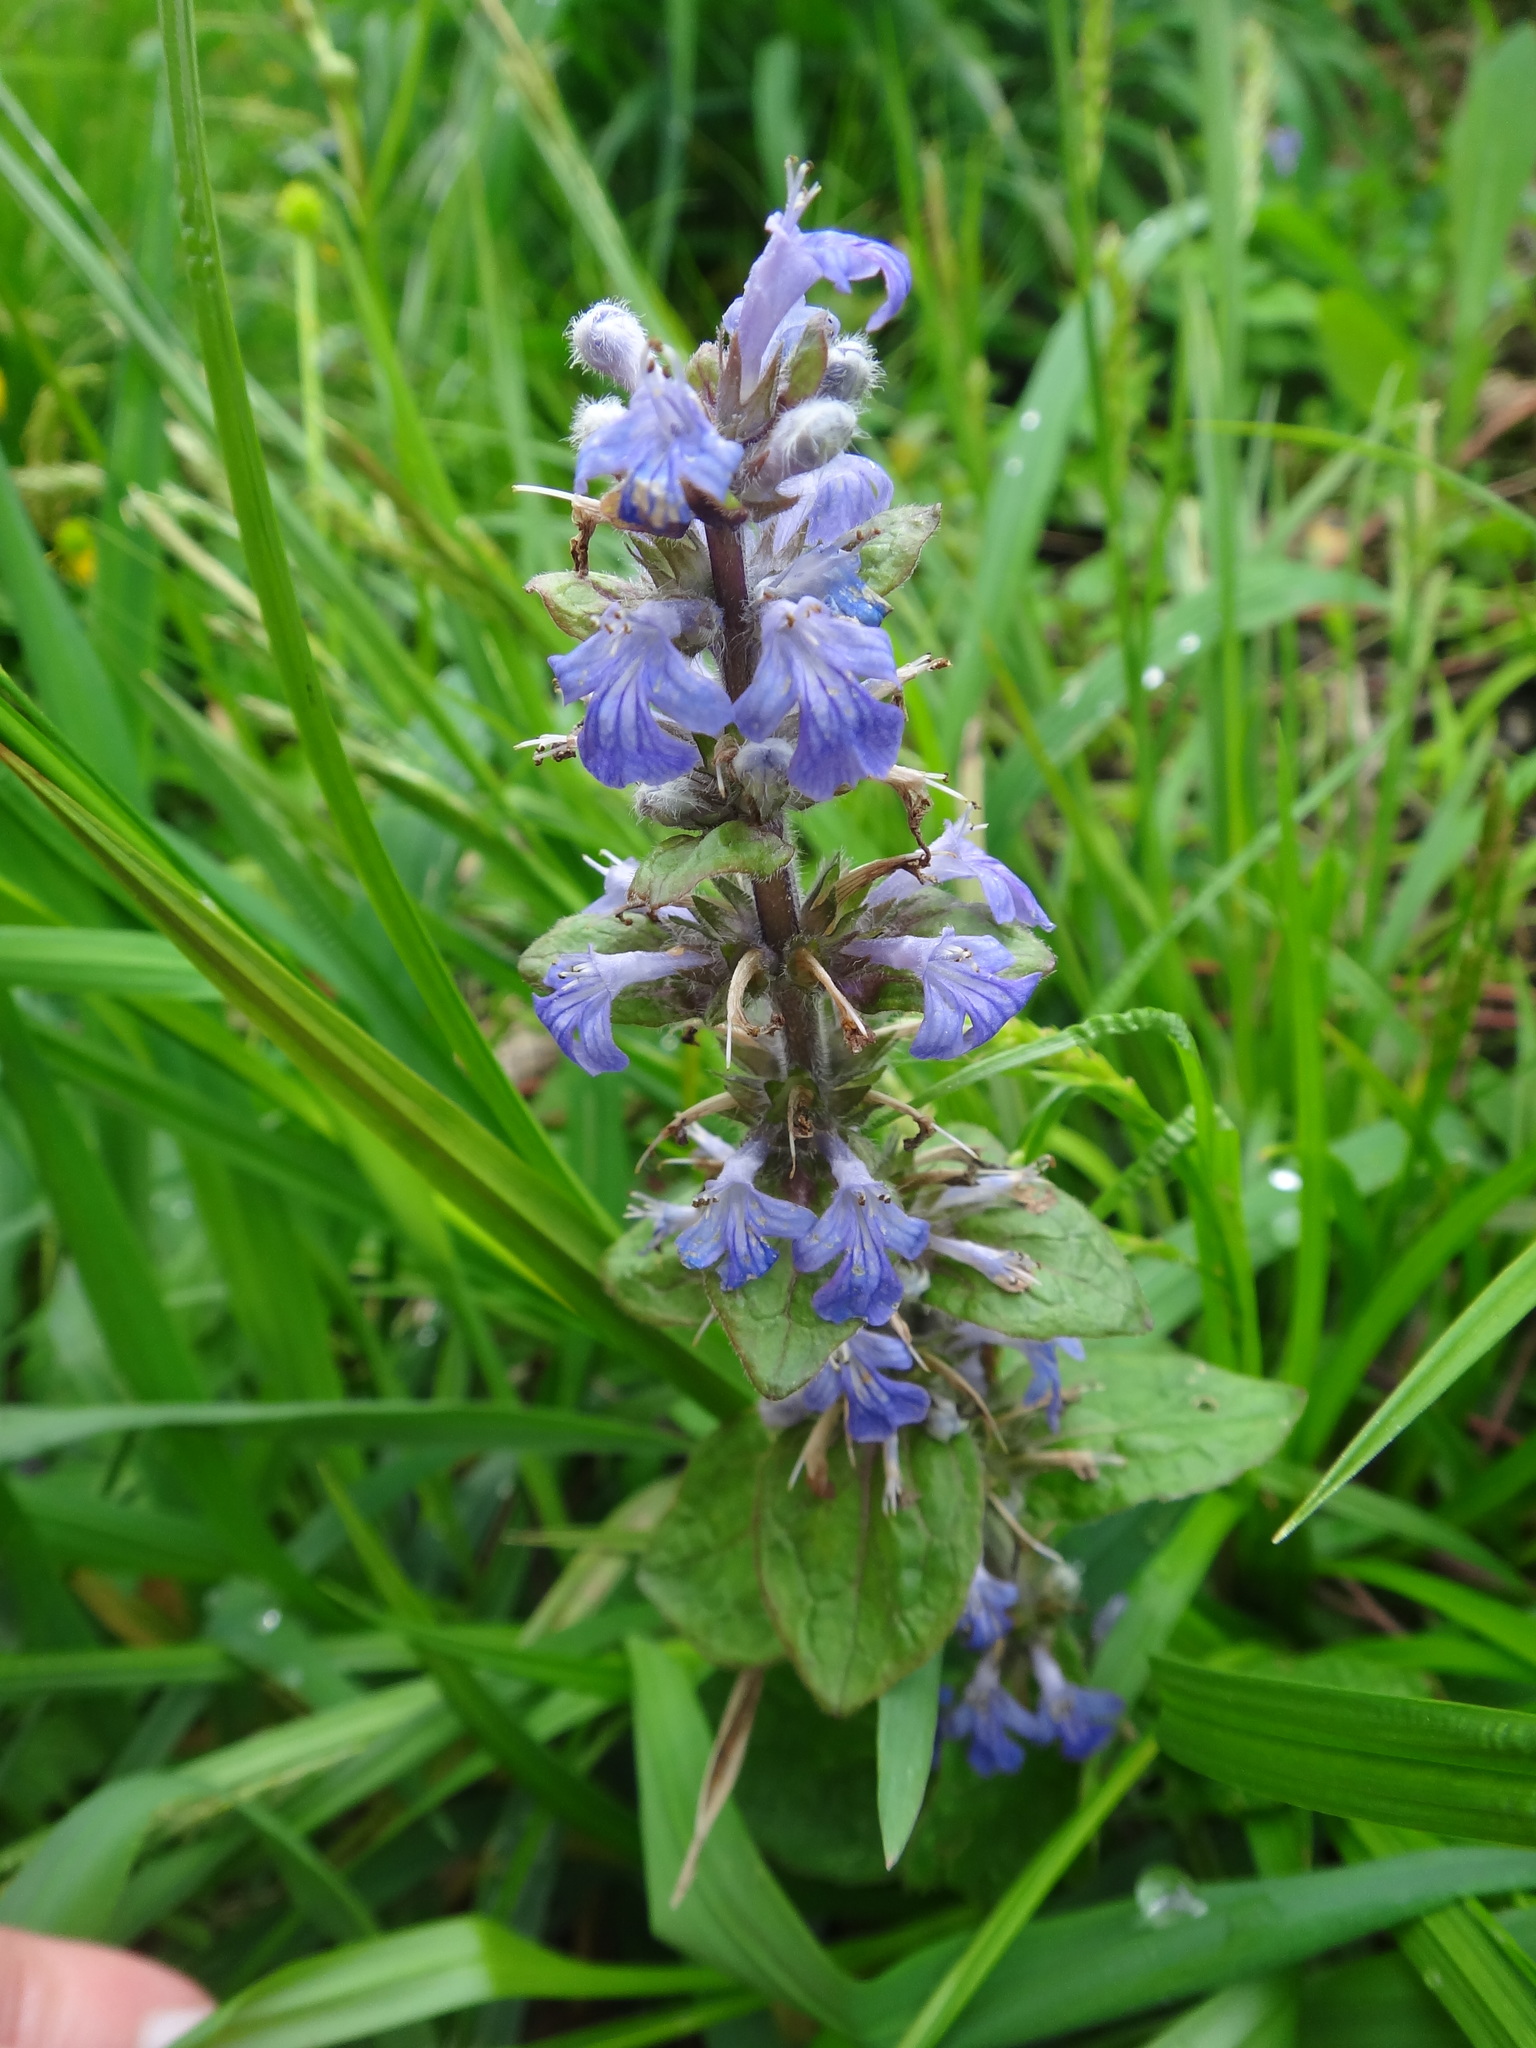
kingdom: Plantae
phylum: Tracheophyta
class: Magnoliopsida
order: Lamiales
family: Lamiaceae
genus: Ajuga
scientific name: Ajuga reptans
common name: Bugle
